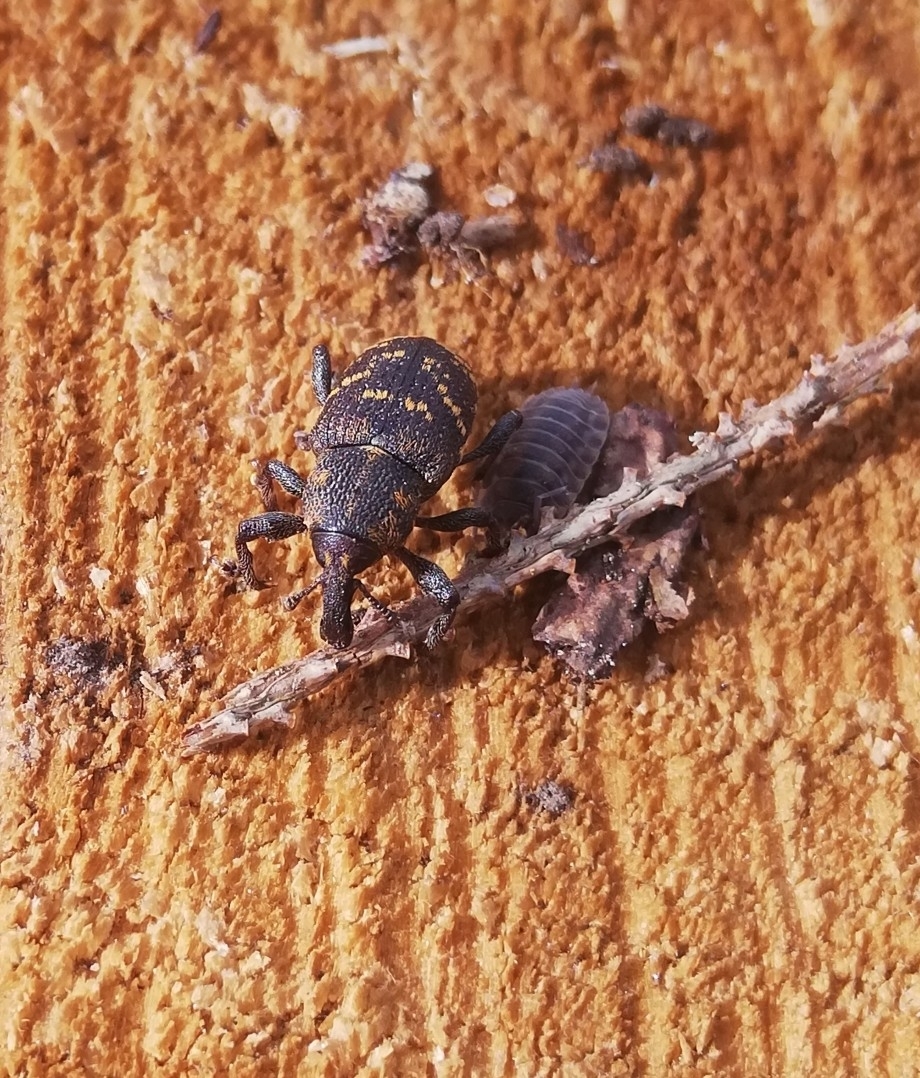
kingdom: Animalia
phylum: Arthropoda
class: Insecta
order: Coleoptera
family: Curculionidae
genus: Hylobius
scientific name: Hylobius abietis
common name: Large pine weevil
